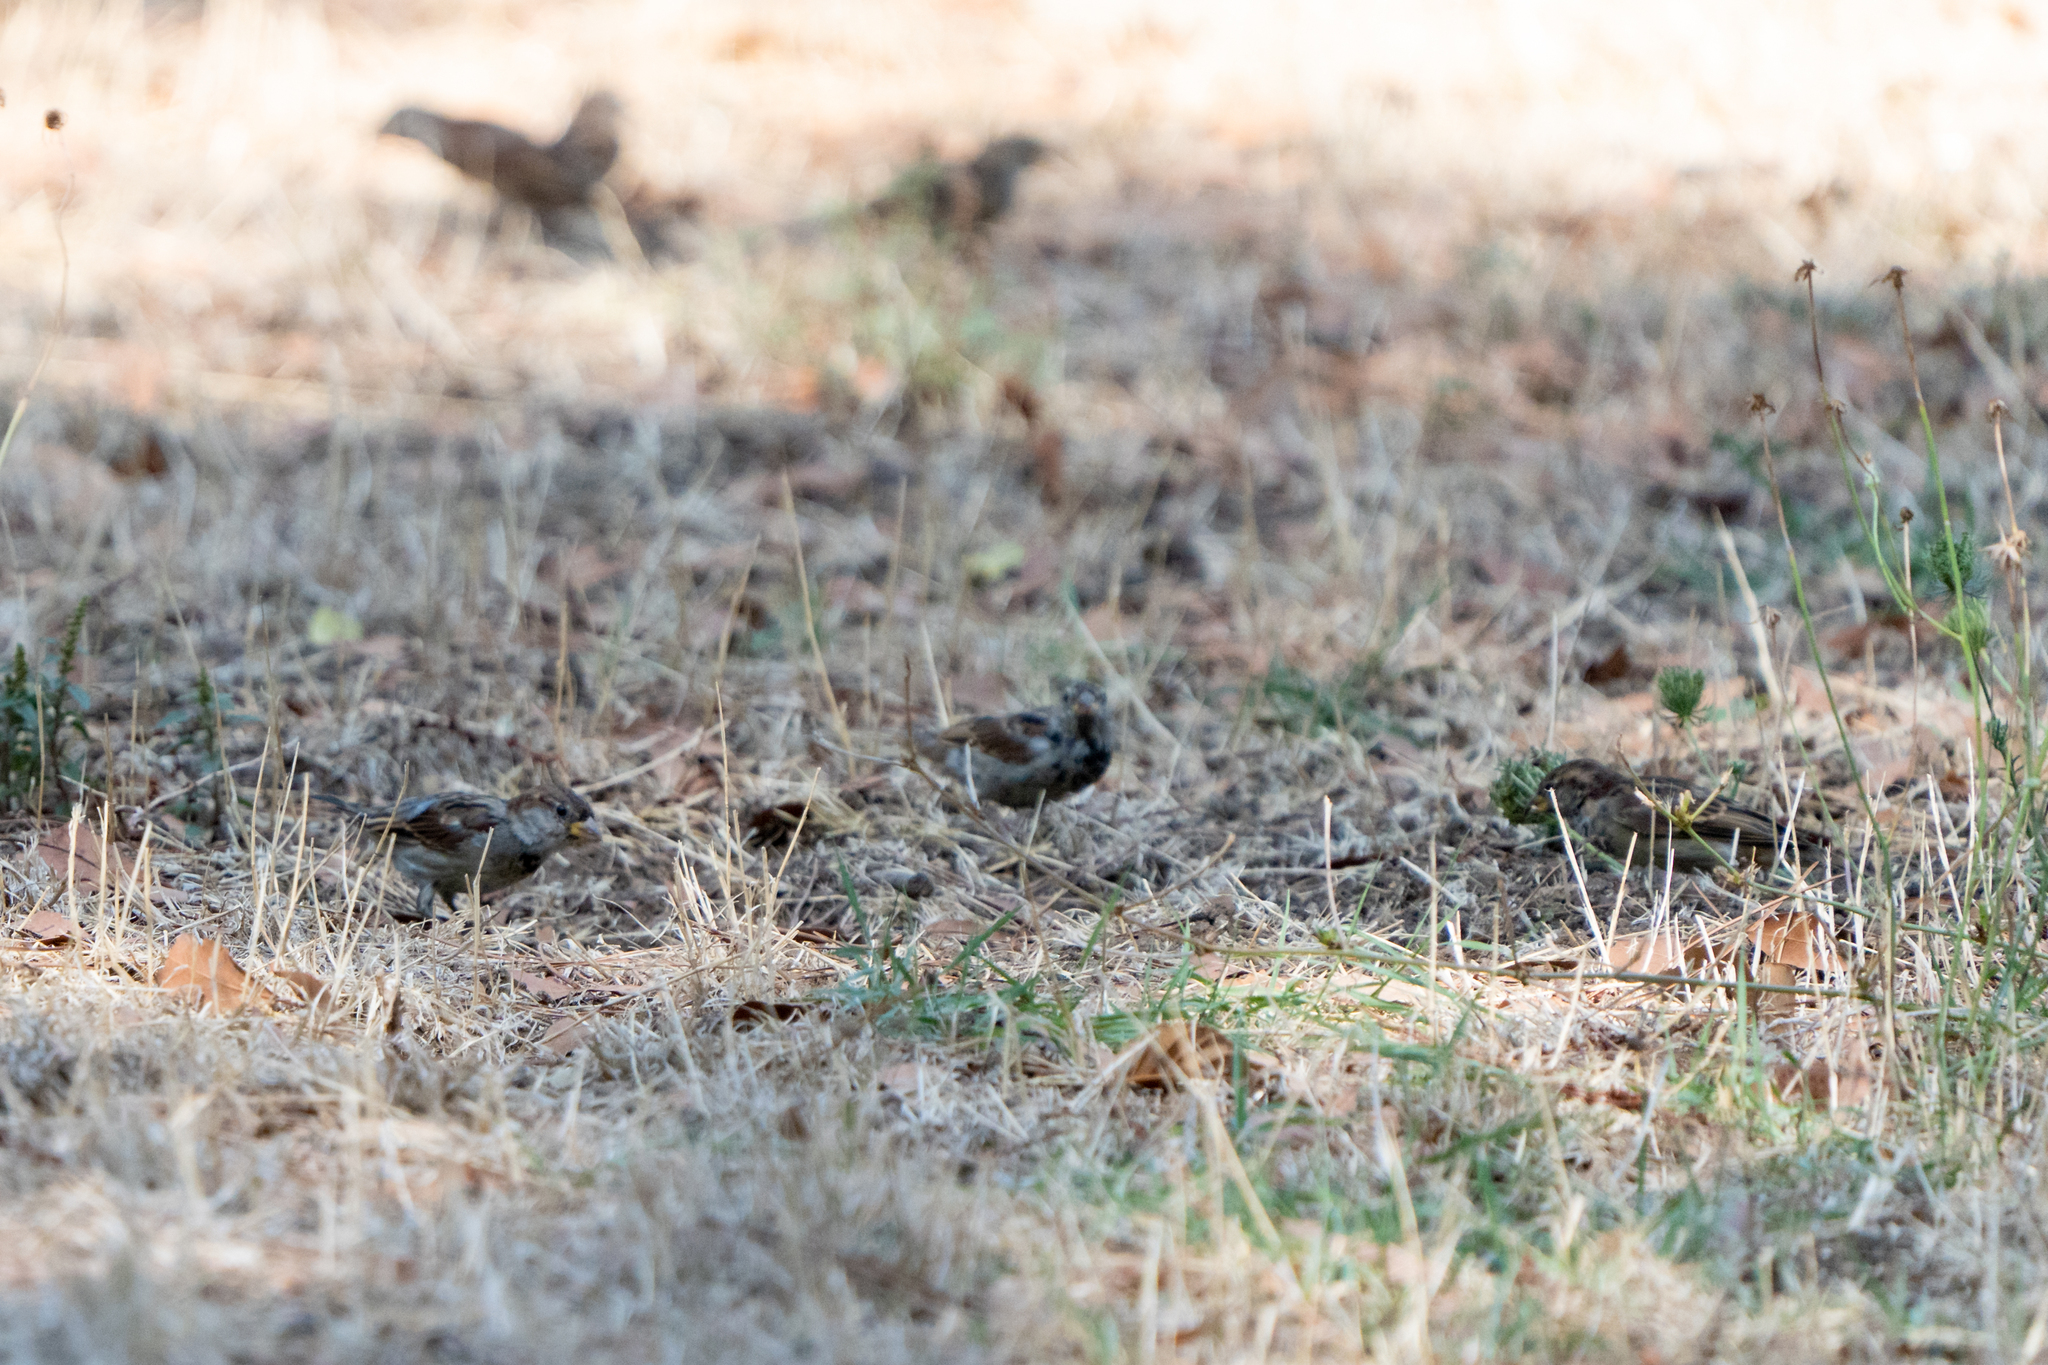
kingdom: Animalia
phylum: Chordata
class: Aves
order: Passeriformes
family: Passeridae
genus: Passer
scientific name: Passer italiae
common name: Italian sparrow
